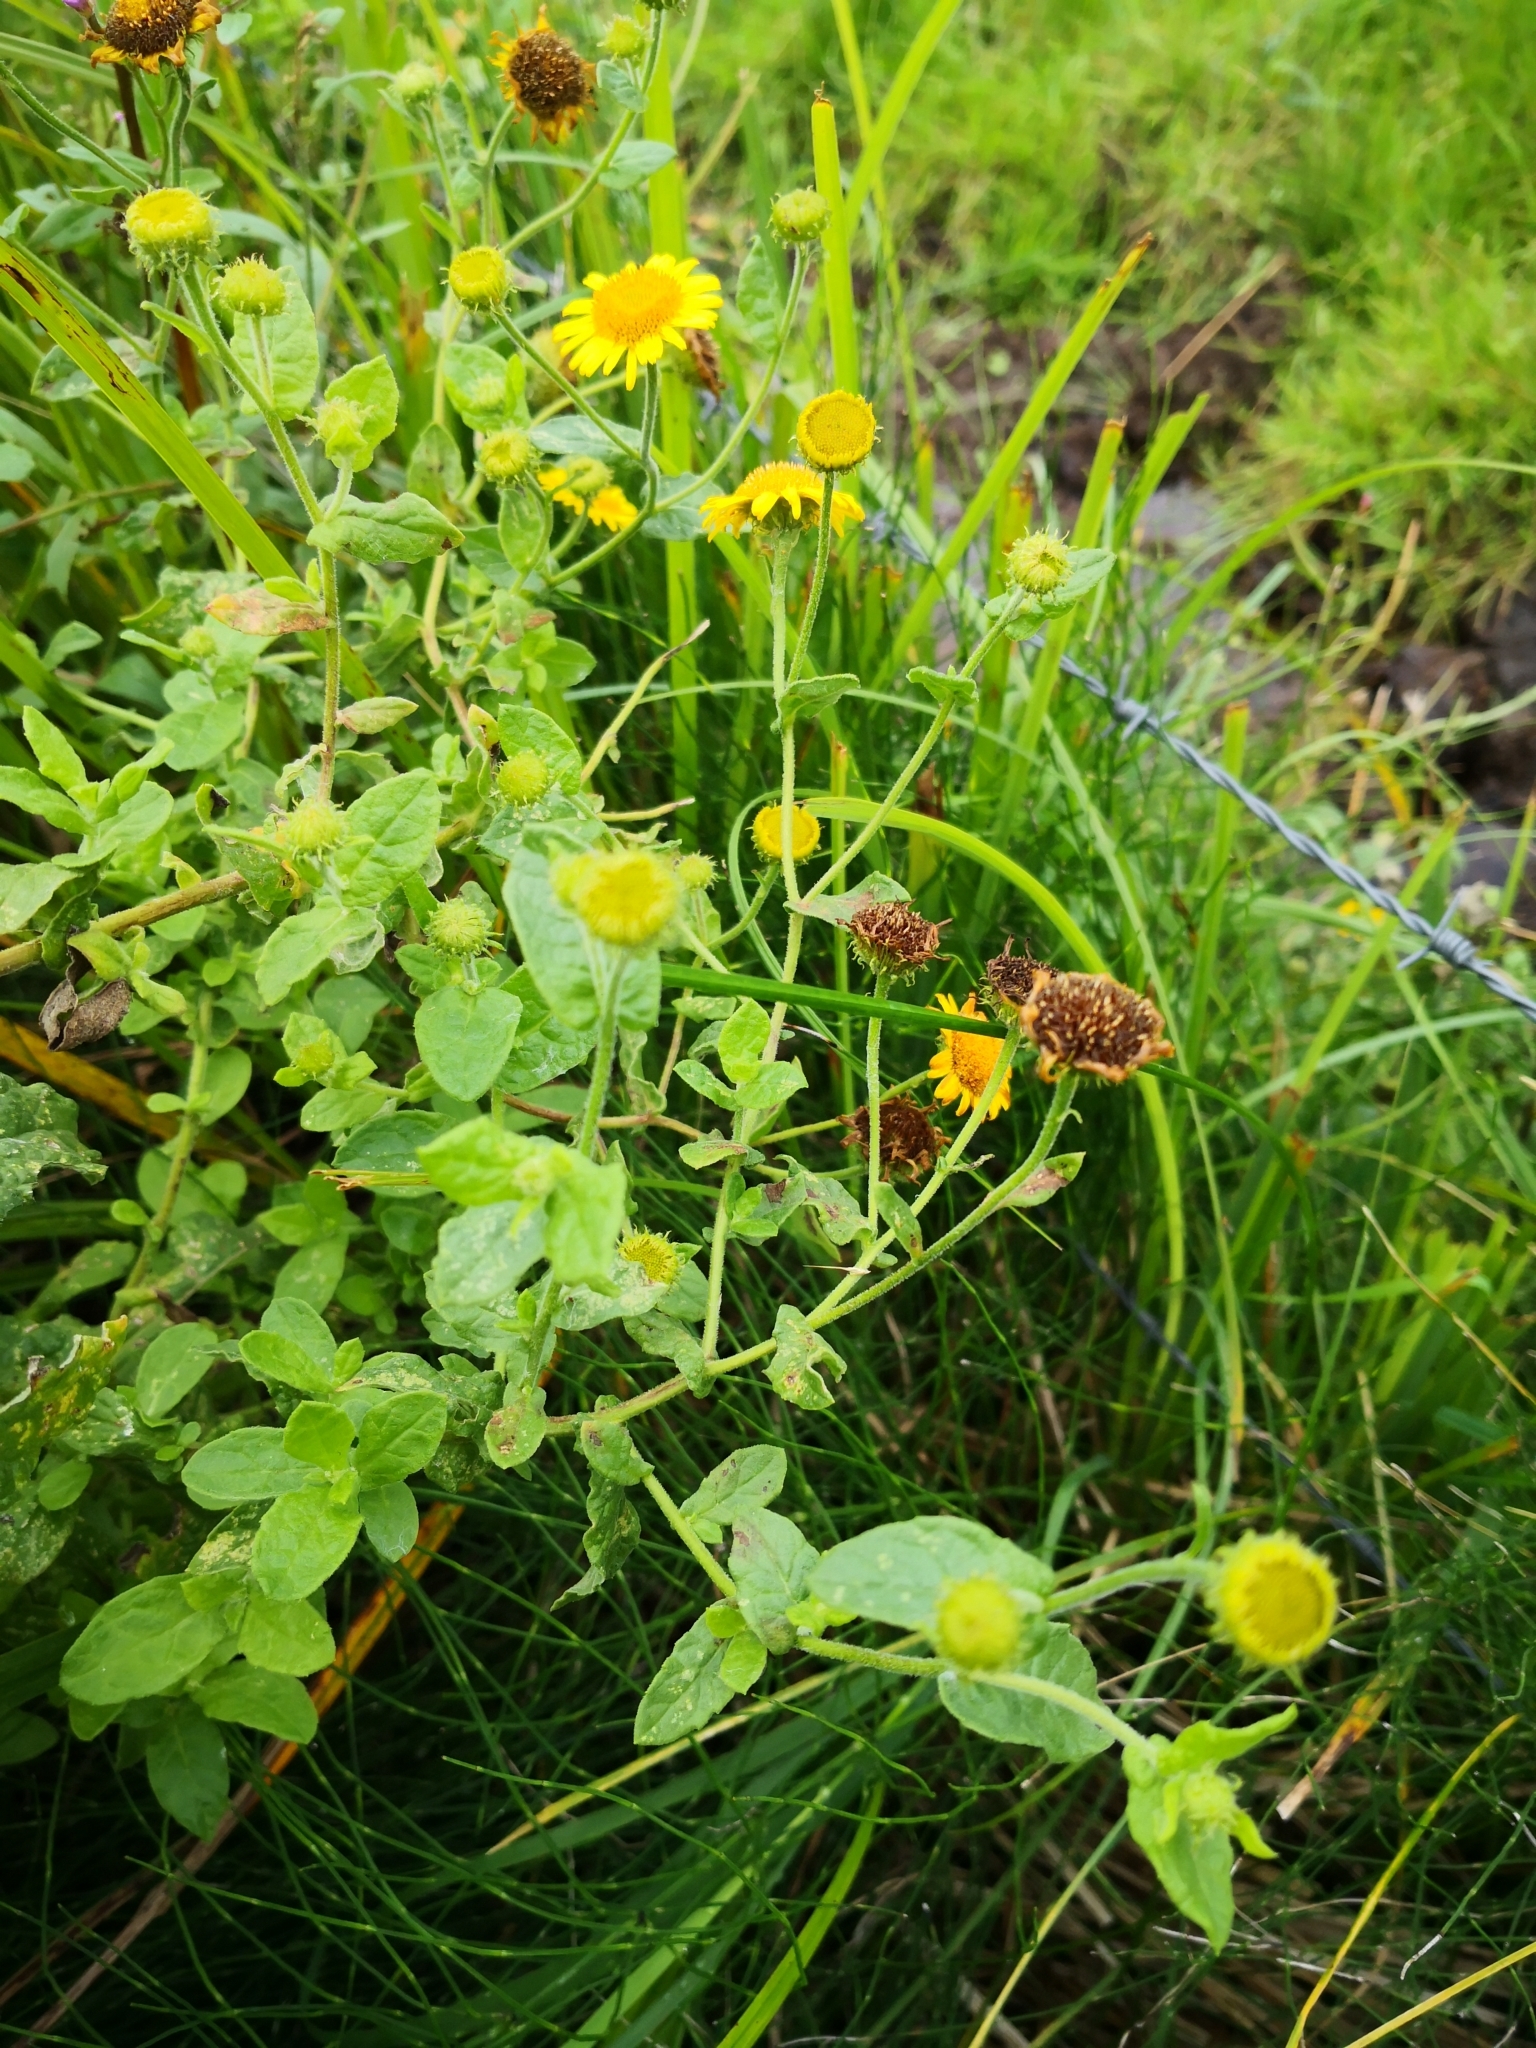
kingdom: Plantae
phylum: Tracheophyta
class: Magnoliopsida
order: Asterales
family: Asteraceae
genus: Pulicaria
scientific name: Pulicaria dysenterica
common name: Common fleabane
